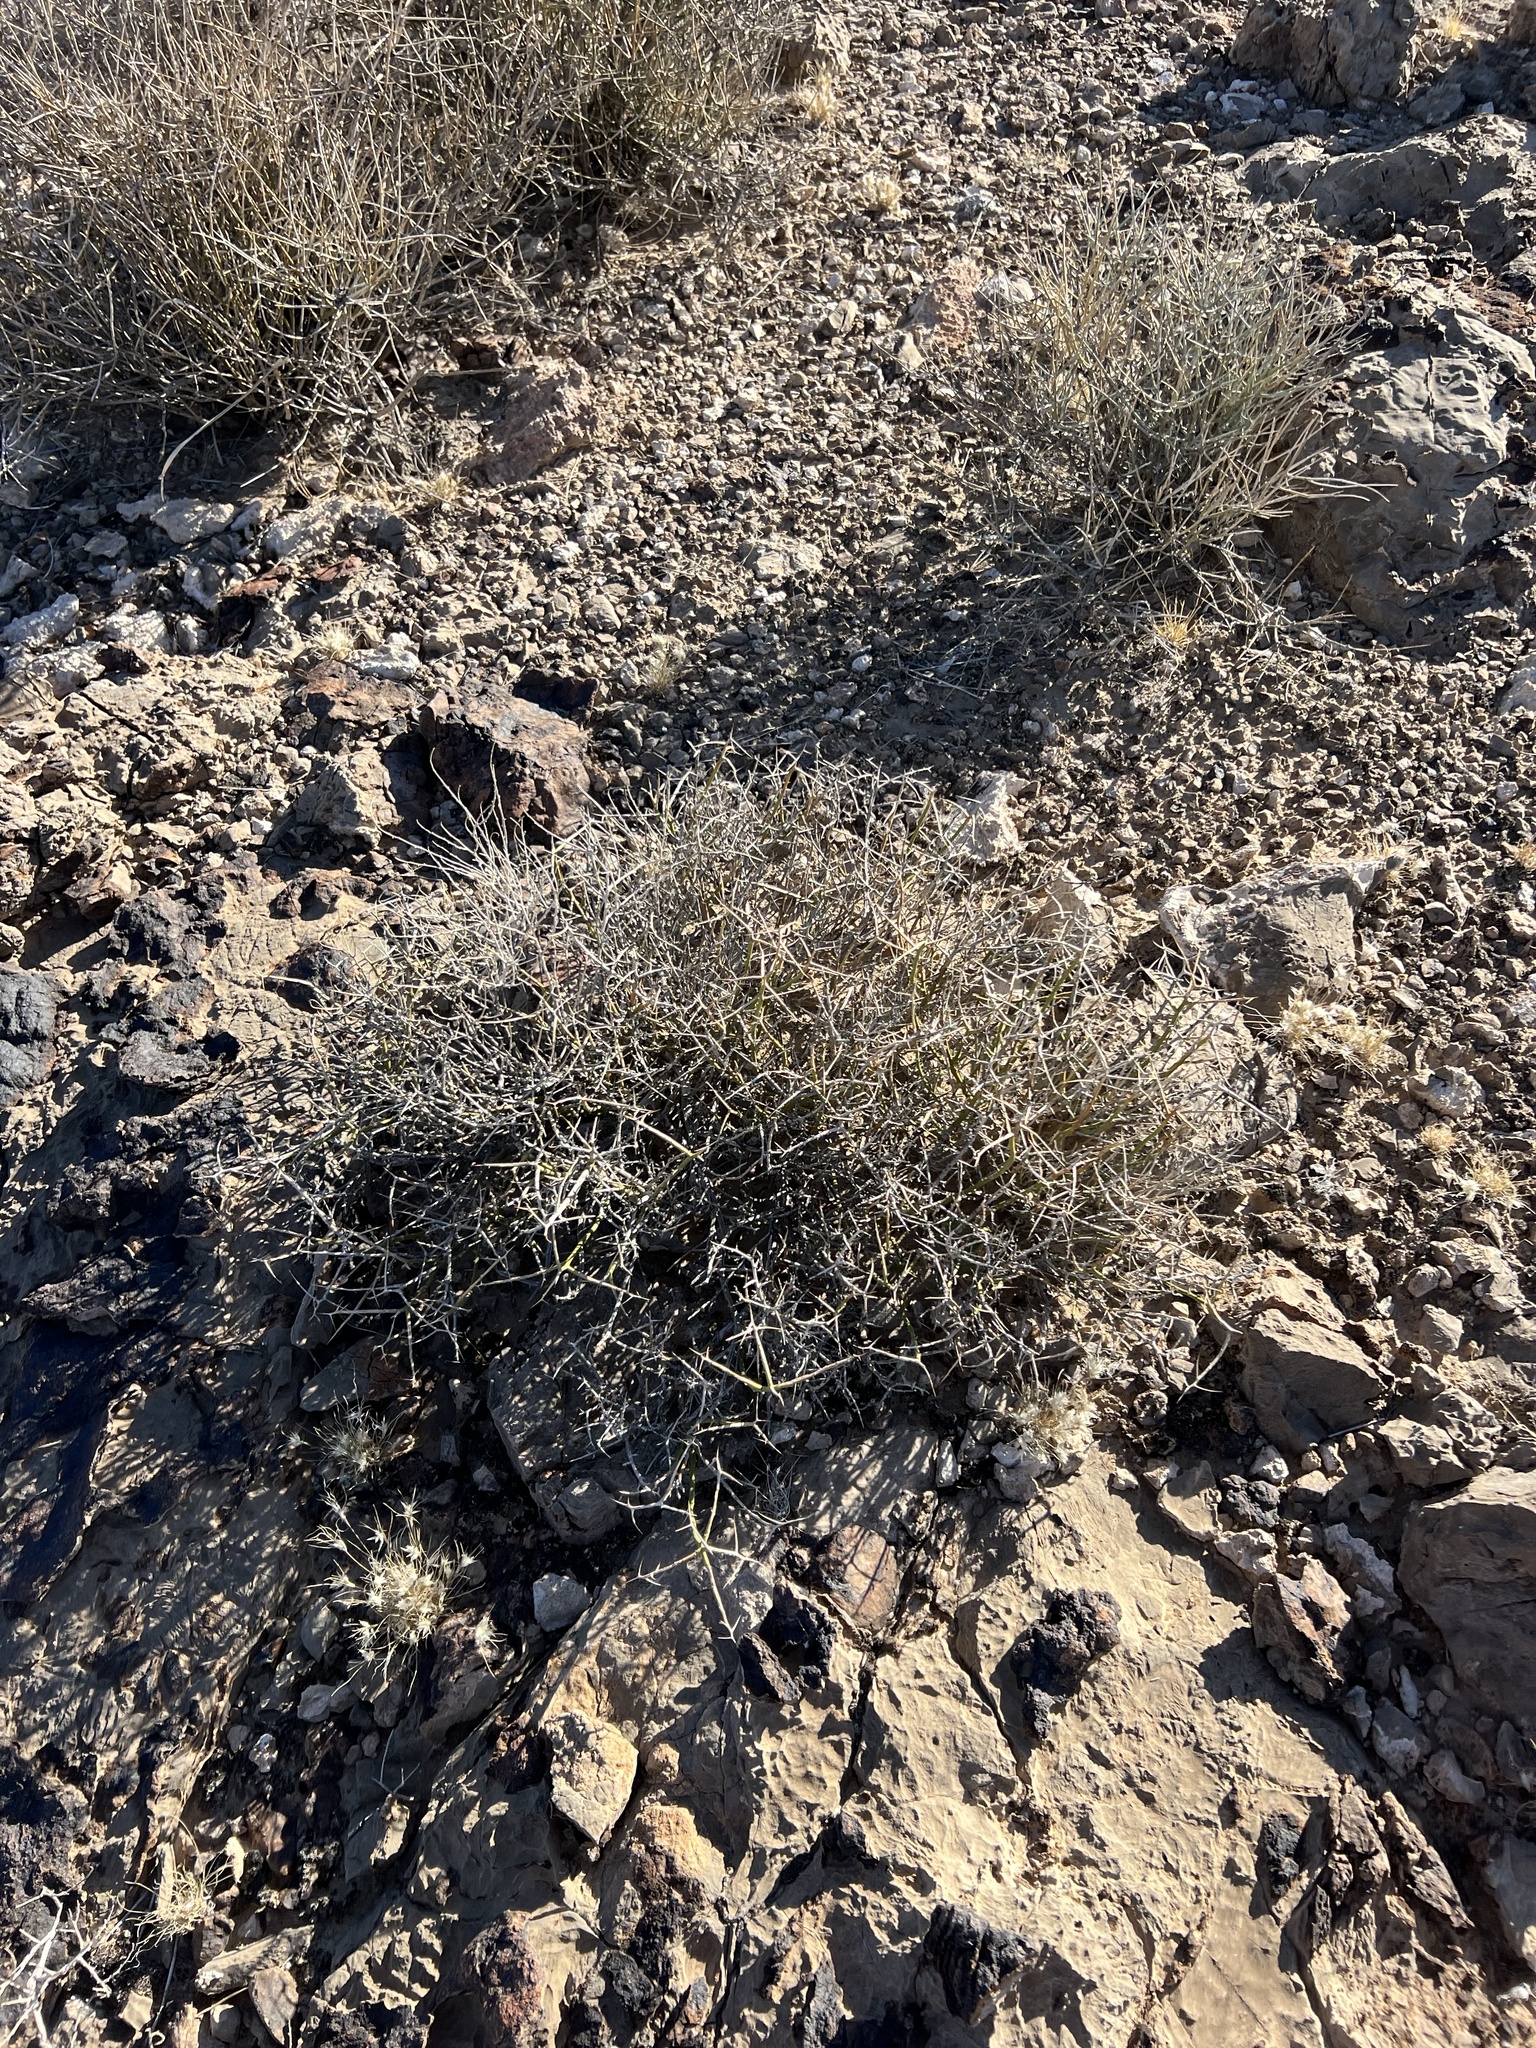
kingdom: Plantae
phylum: Tracheophyta
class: Magnoliopsida
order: Lamiales
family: Oleaceae
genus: Menodora
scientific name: Menodora spinescens
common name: Spiny menodora
